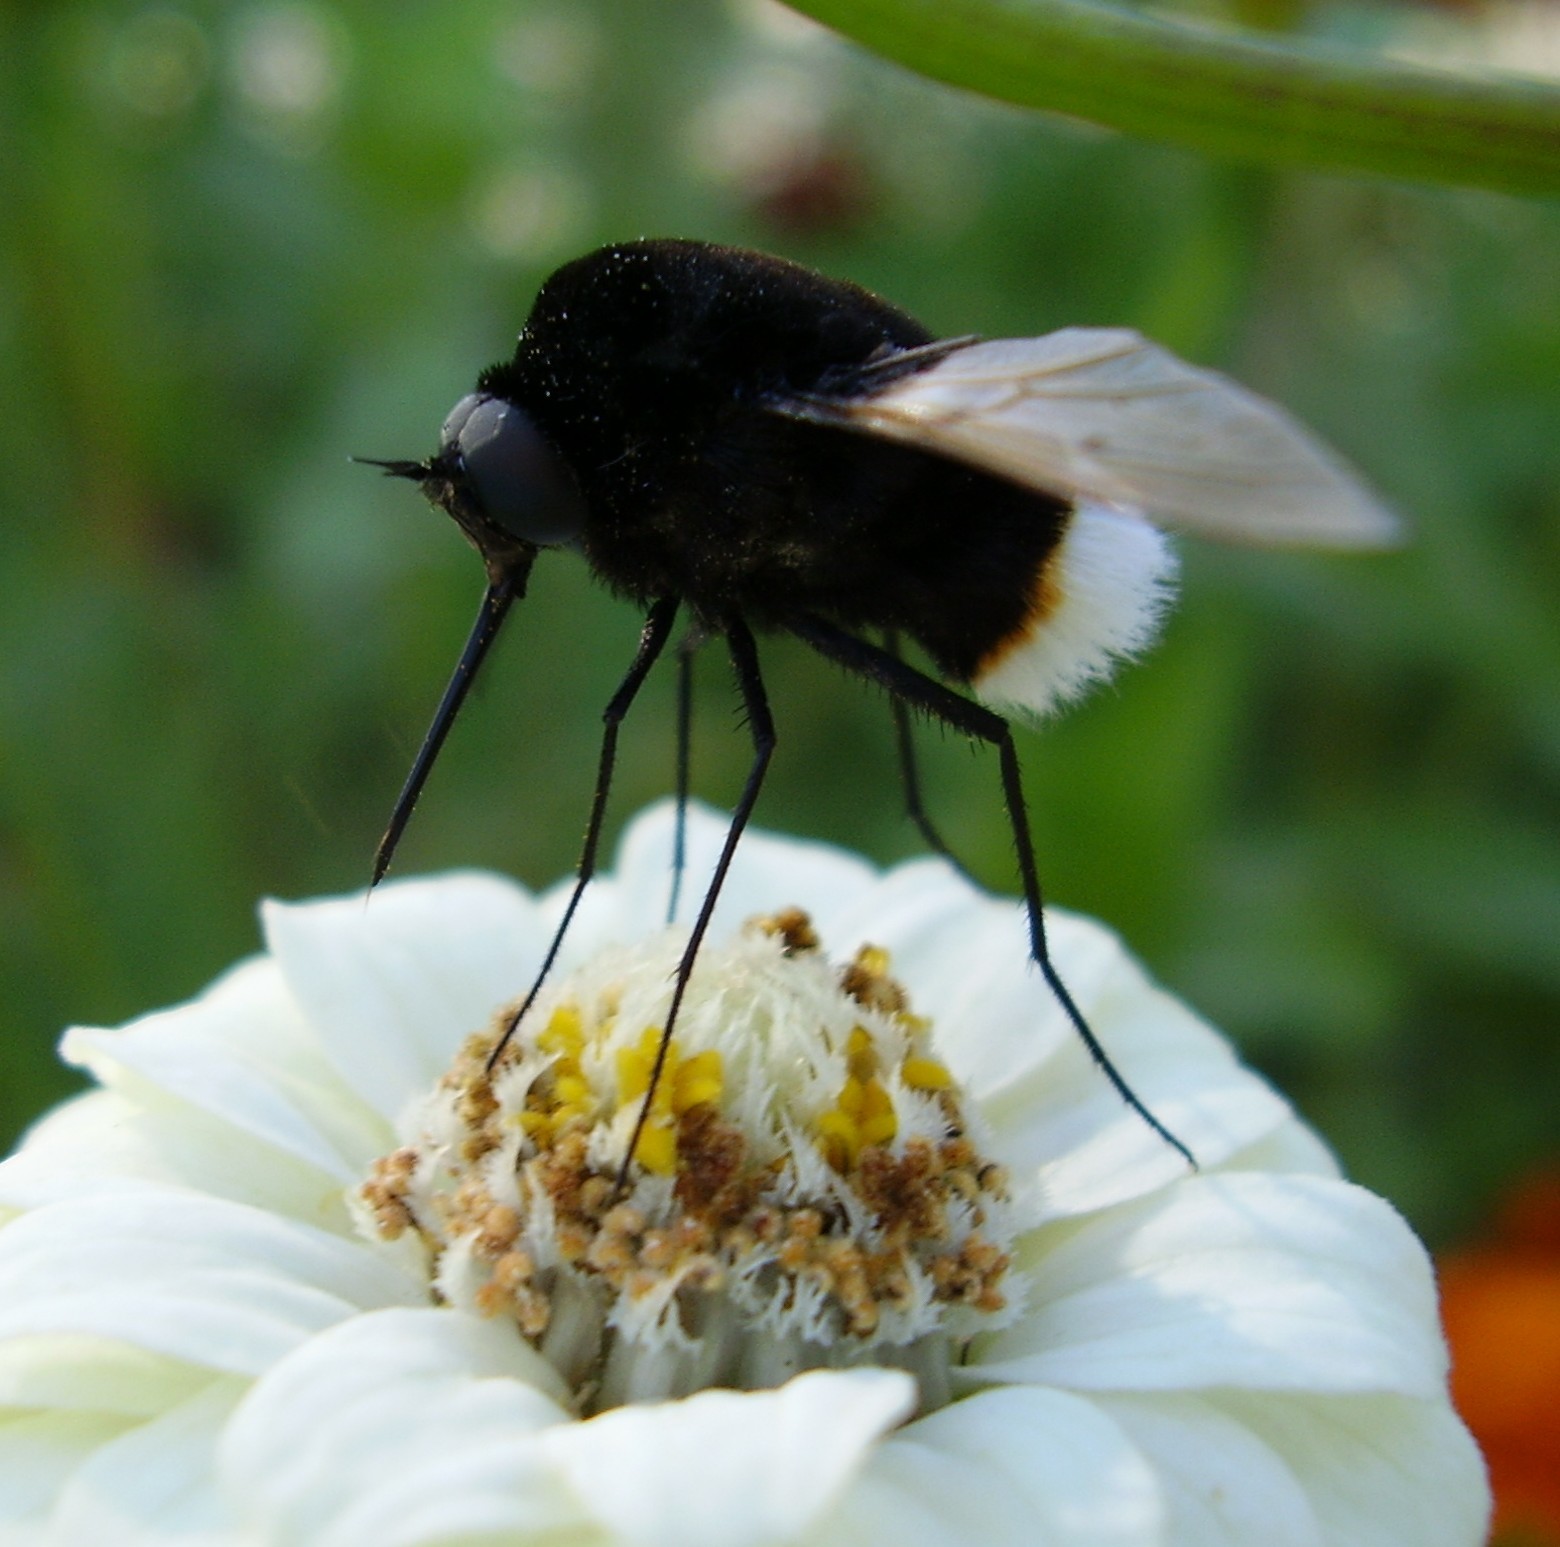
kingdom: Animalia
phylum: Arthropoda
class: Insecta
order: Diptera
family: Bombyliidae
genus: Bombomyia
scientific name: Bombomyia discoidea
